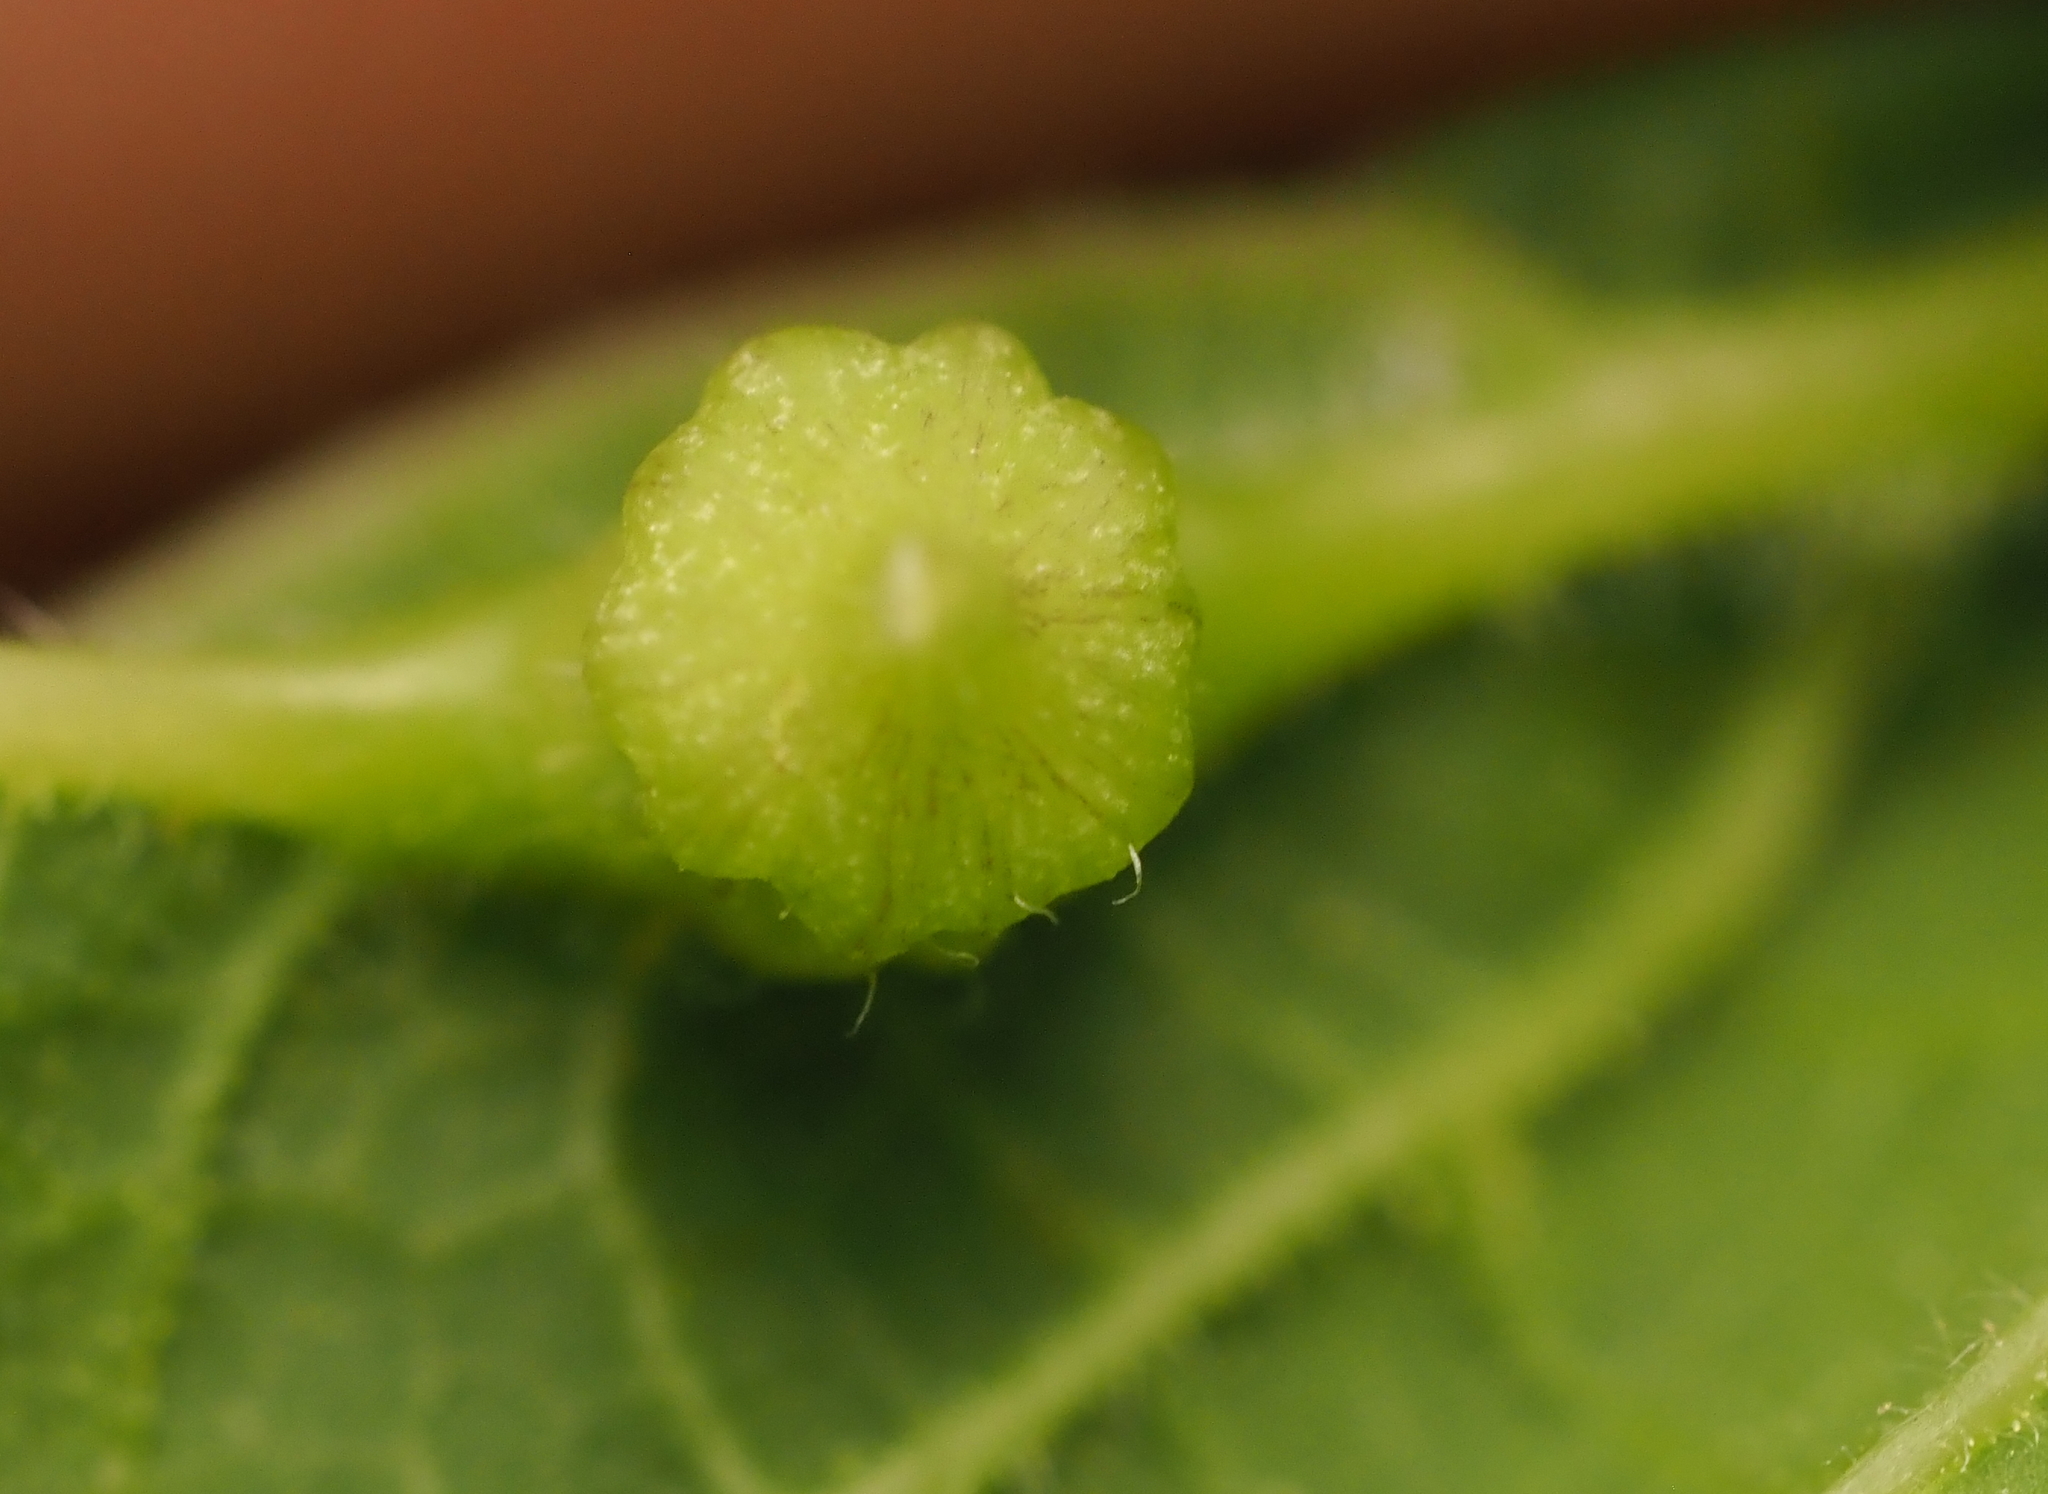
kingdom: Animalia
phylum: Arthropoda
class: Insecta
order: Diptera
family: Cecidomyiidae
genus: Celticecis
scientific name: Celticecis ramicola
